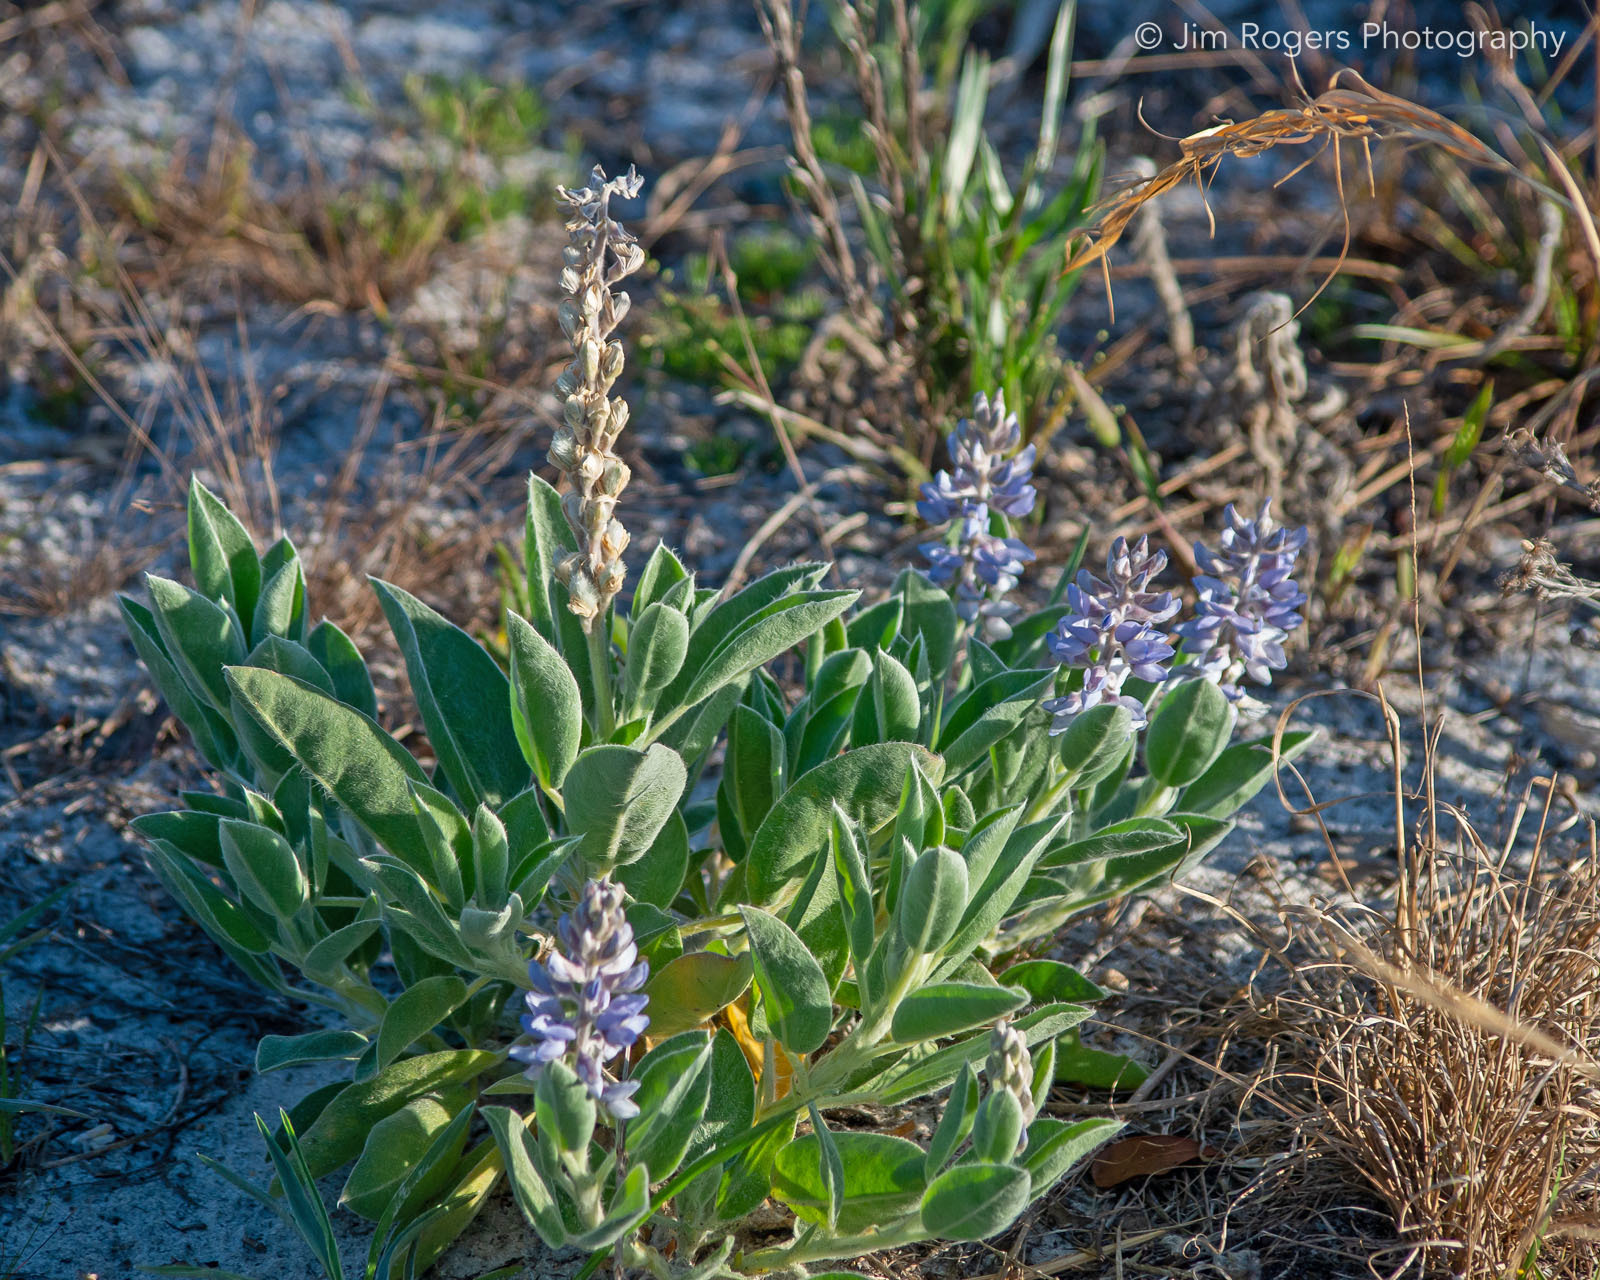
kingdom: Plantae
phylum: Tracheophyta
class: Magnoliopsida
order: Fabales
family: Fabaceae
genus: Lupinus
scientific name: Lupinus
